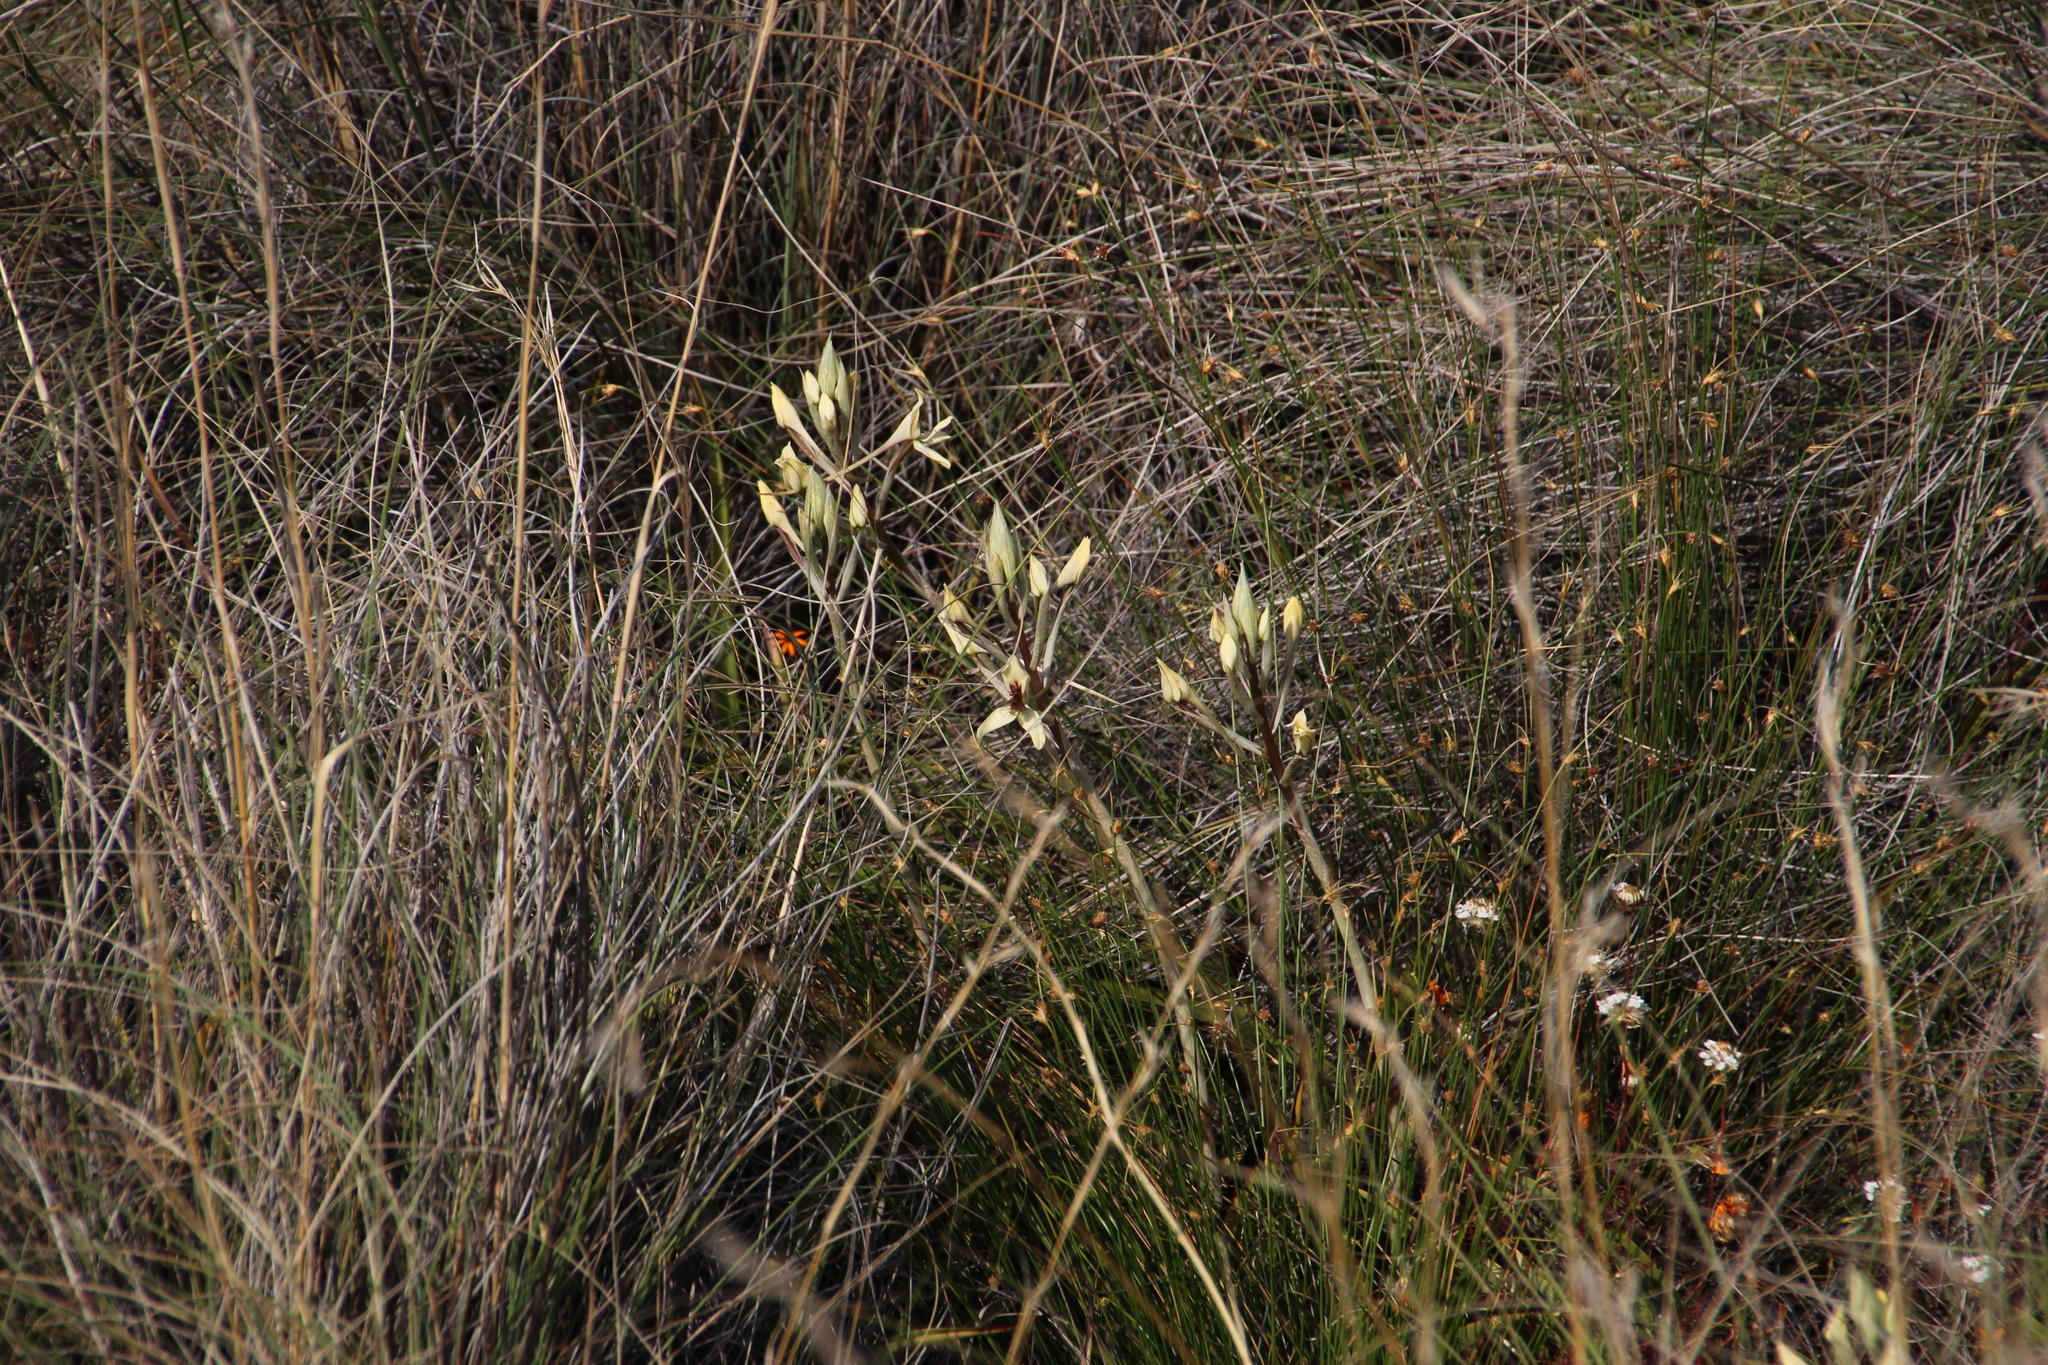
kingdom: Plantae
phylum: Tracheophyta
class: Liliopsida
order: Asparagales
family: Orchidaceae
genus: Disa
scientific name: Disa karooica
